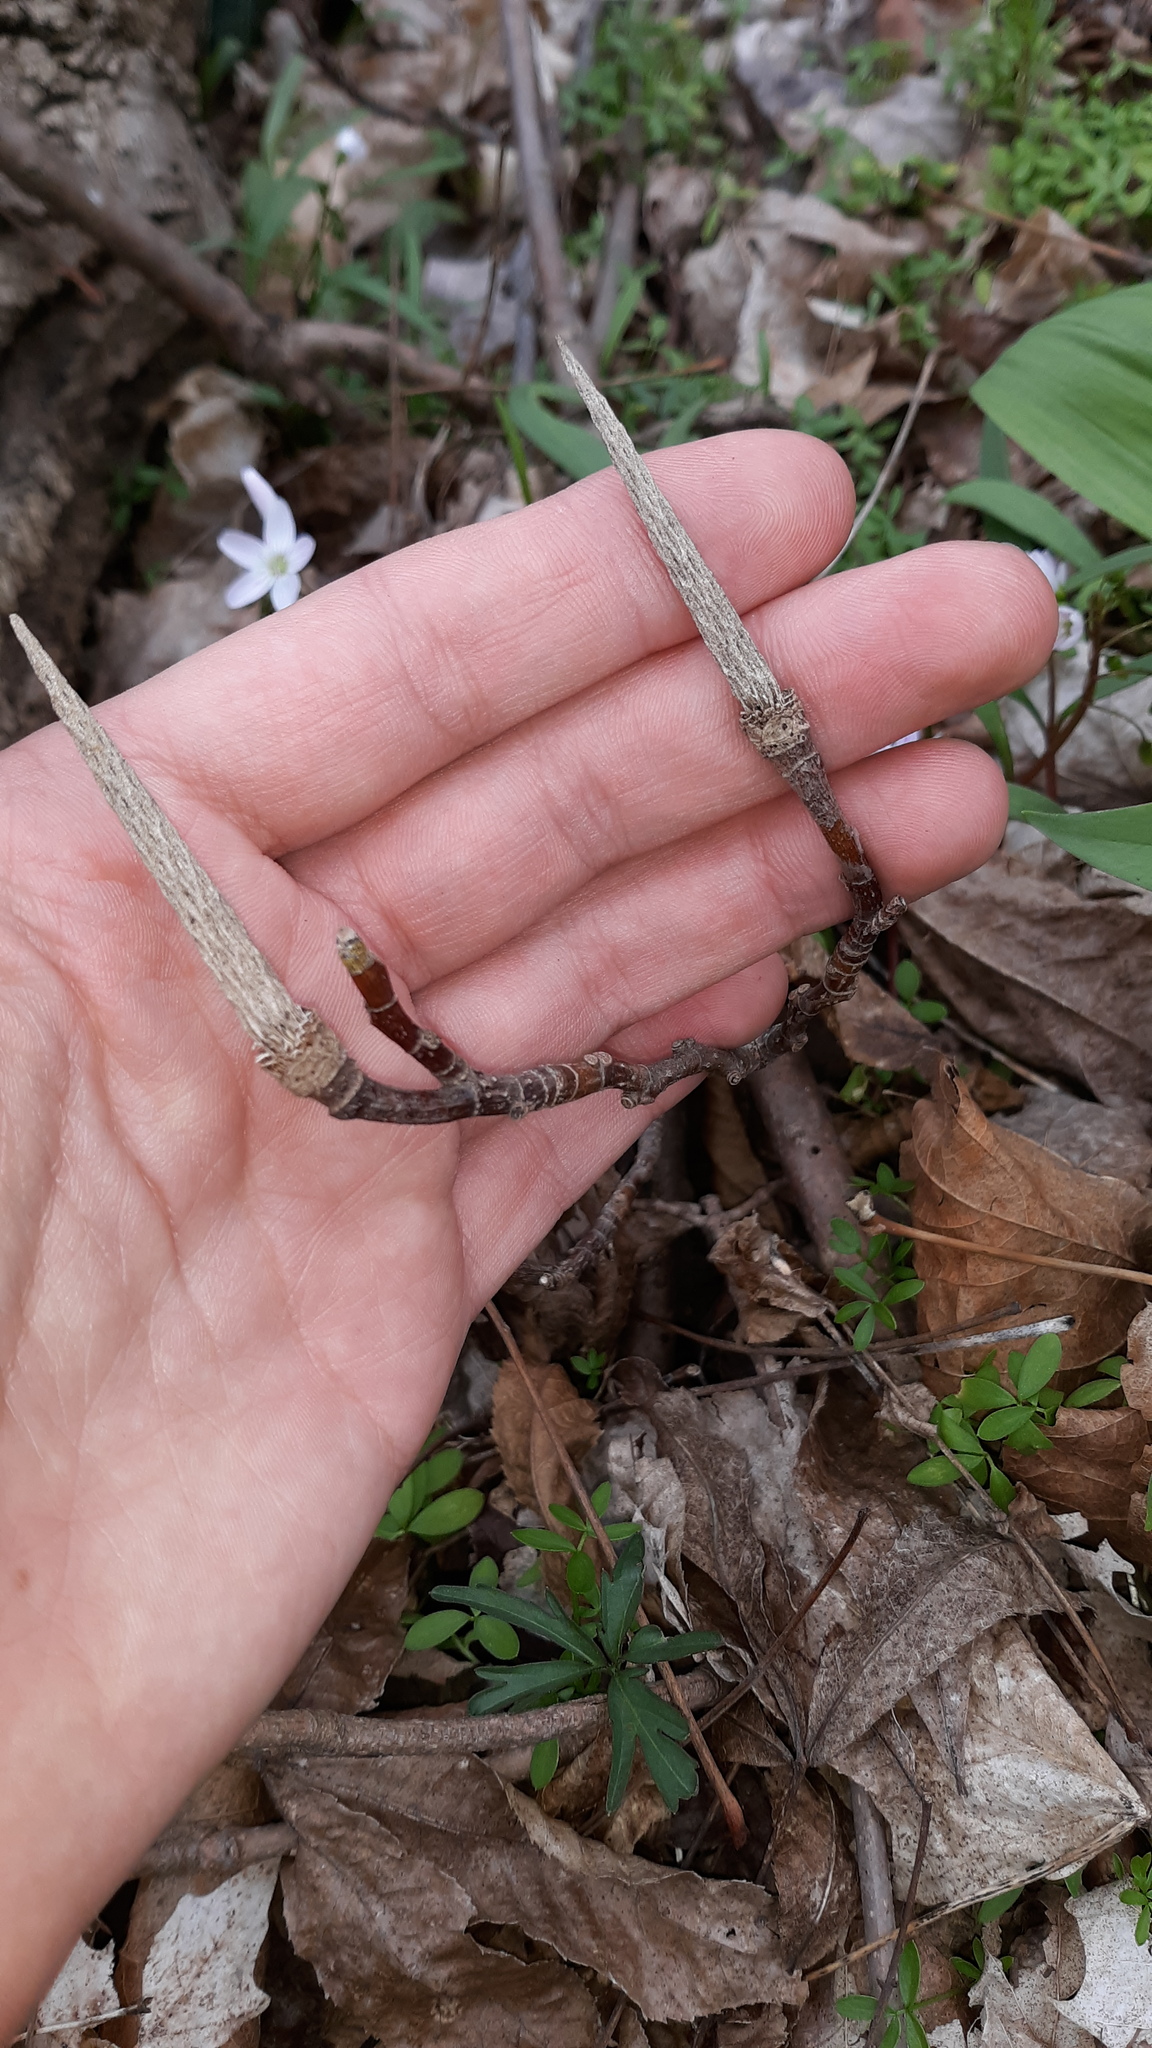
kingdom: Plantae
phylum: Tracheophyta
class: Magnoliopsida
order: Magnoliales
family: Magnoliaceae
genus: Liriodendron
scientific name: Liriodendron tulipifera
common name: Tulip tree
